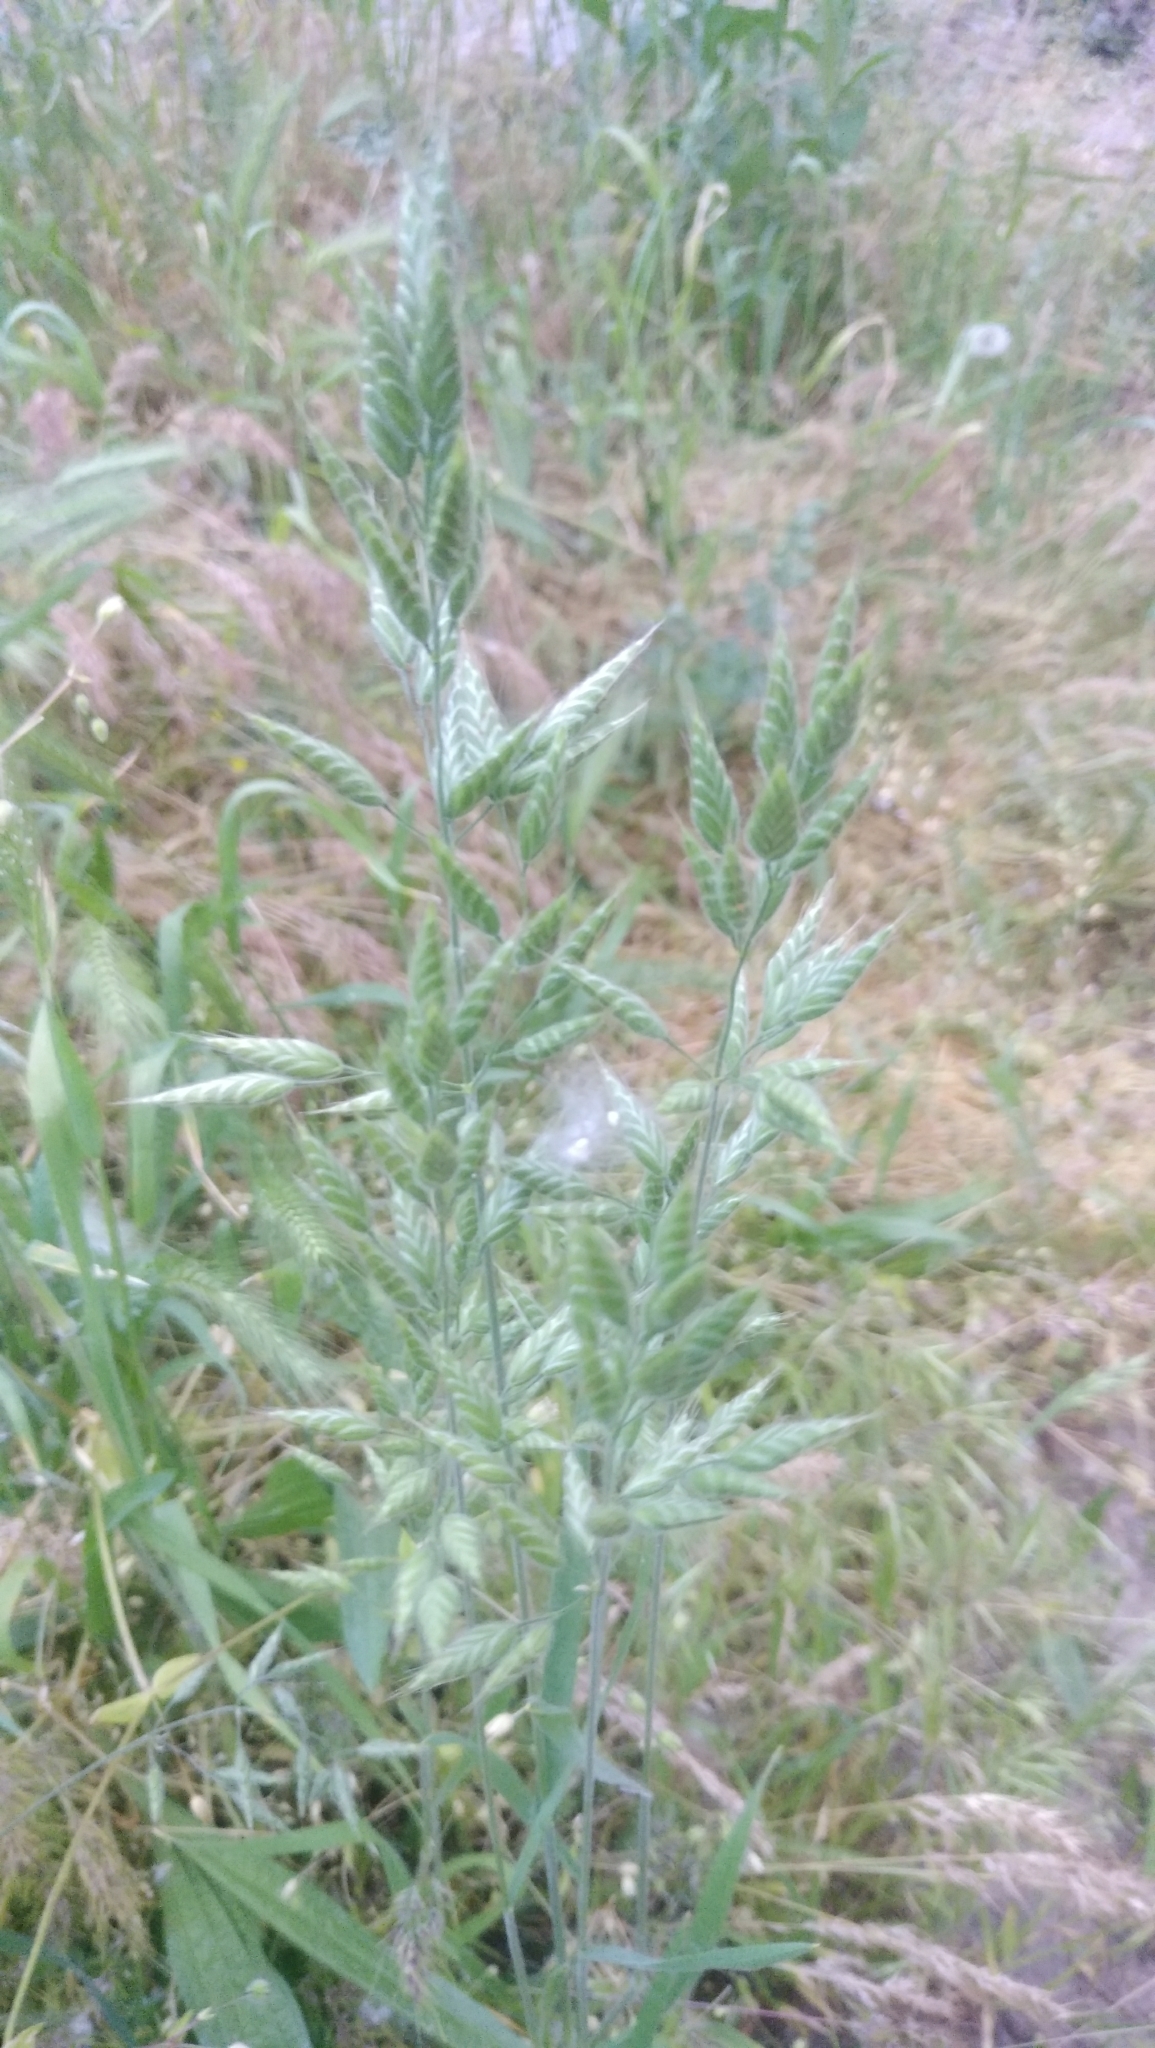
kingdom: Plantae
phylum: Tracheophyta
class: Liliopsida
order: Poales
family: Poaceae
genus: Bromus
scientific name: Bromus hordeaceus
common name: Soft brome
